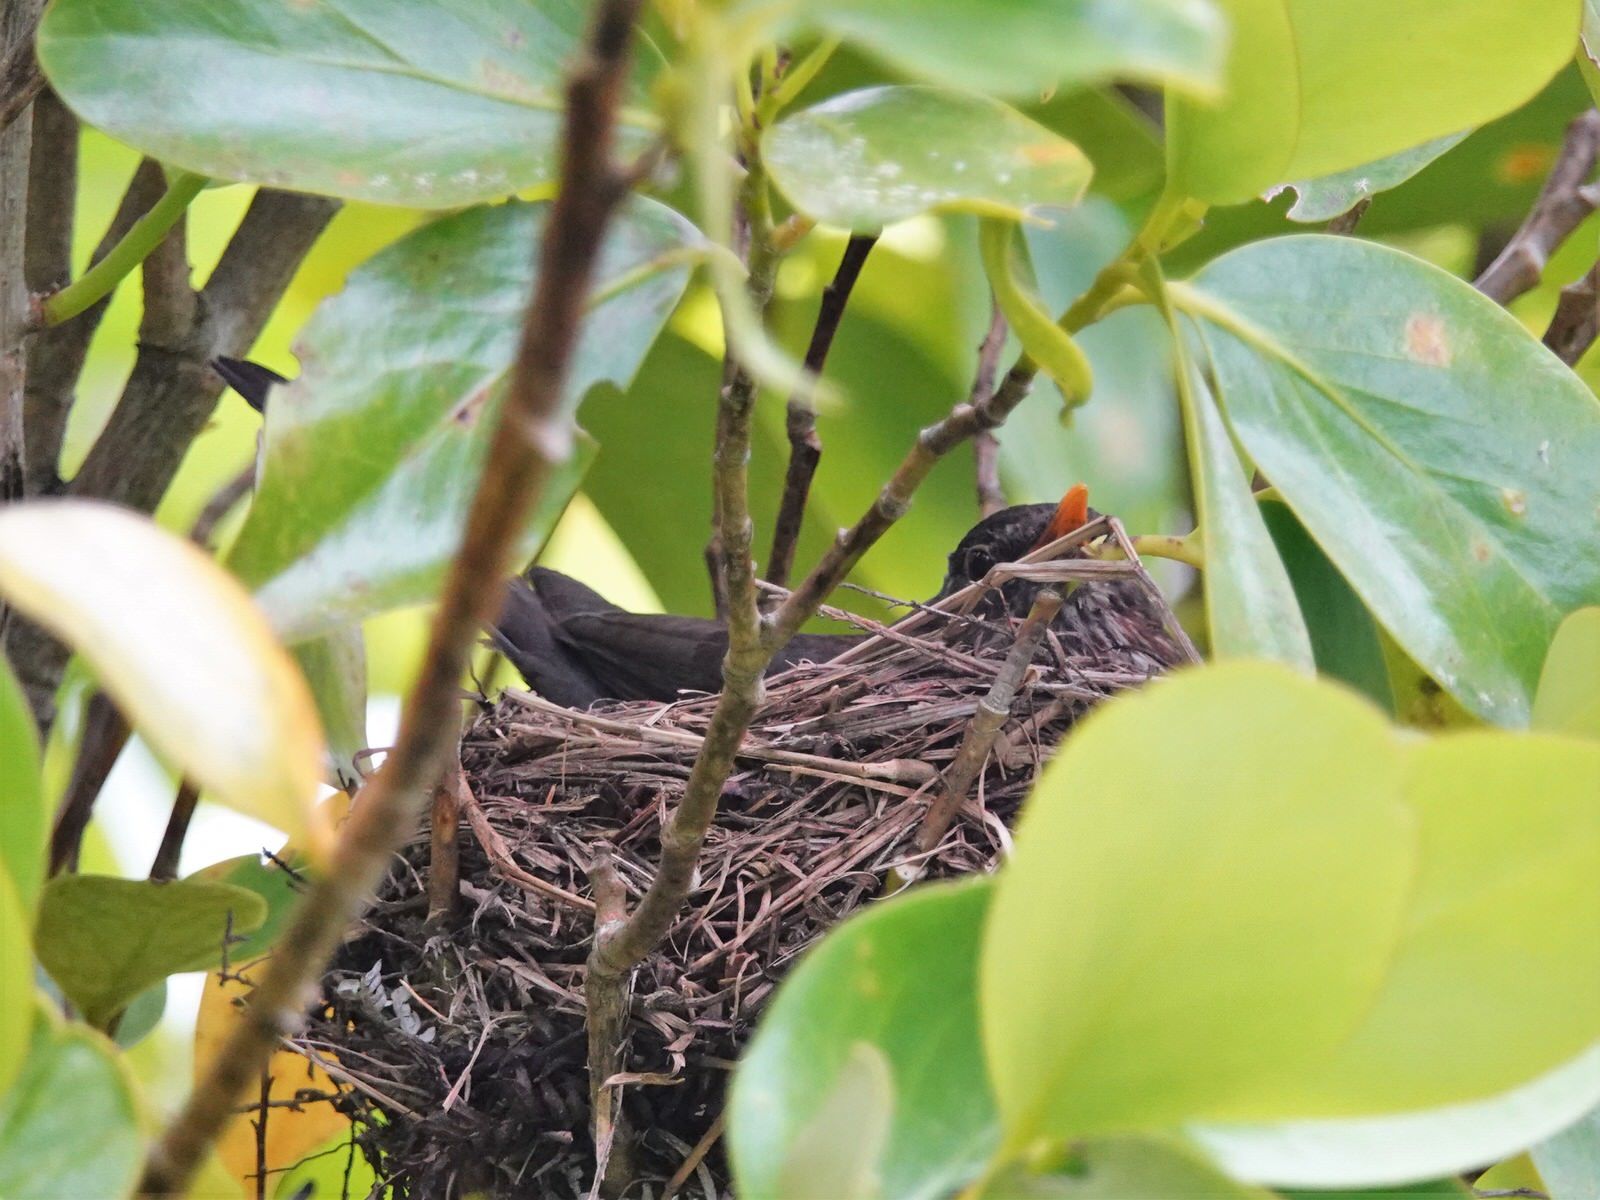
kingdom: Animalia
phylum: Chordata
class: Aves
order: Passeriformes
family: Turdidae
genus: Turdus
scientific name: Turdus merula
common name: Common blackbird
